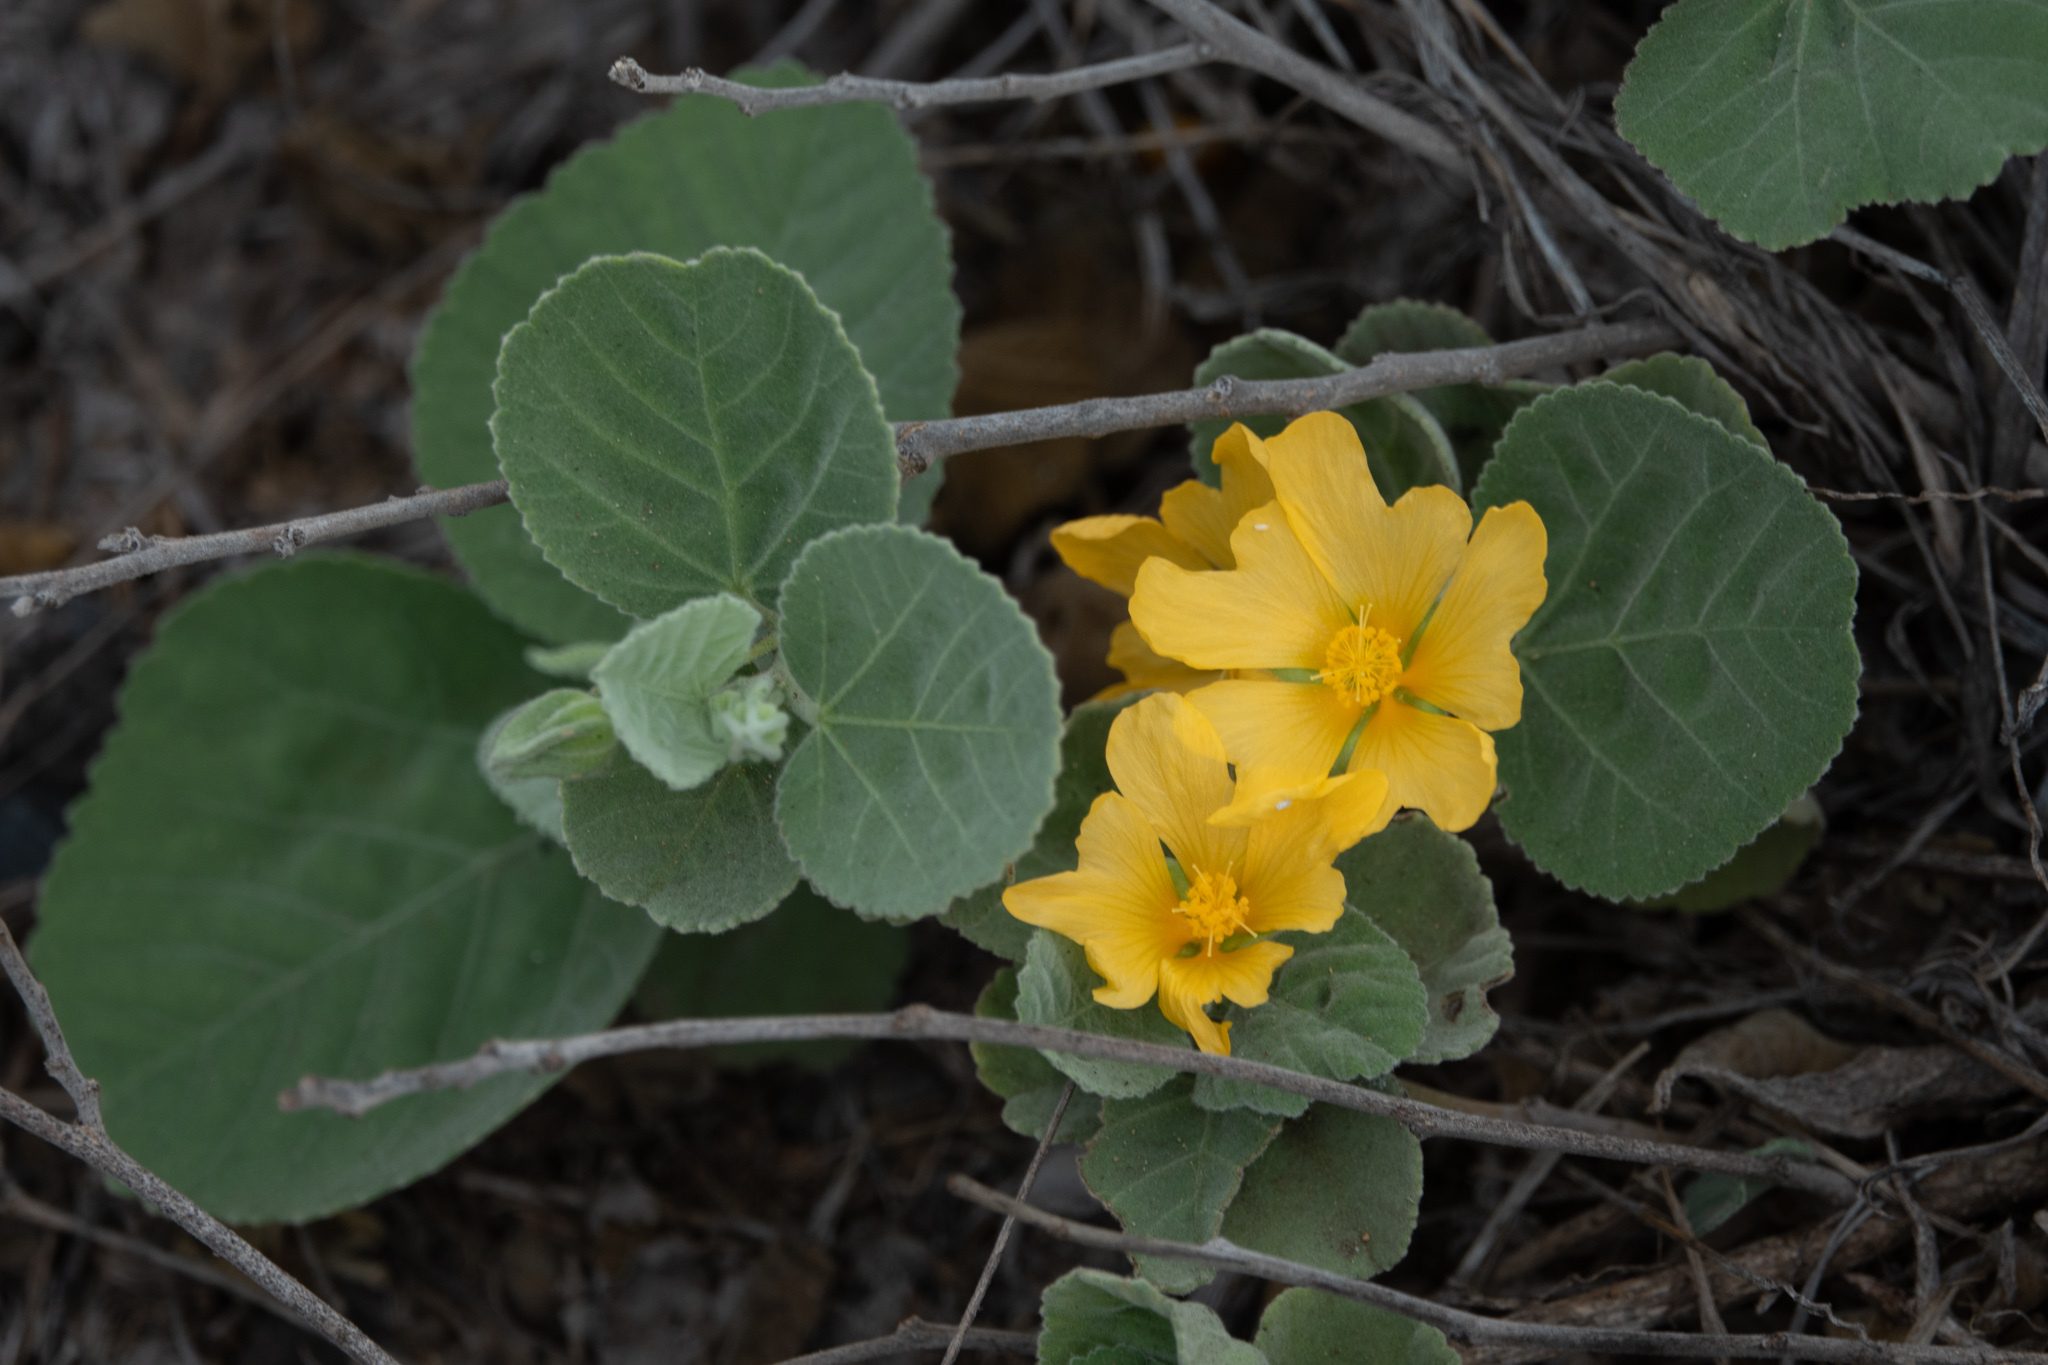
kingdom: Plantae
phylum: Tracheophyta
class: Magnoliopsida
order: Malvales
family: Malvaceae
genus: Sida
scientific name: Sida fallax
